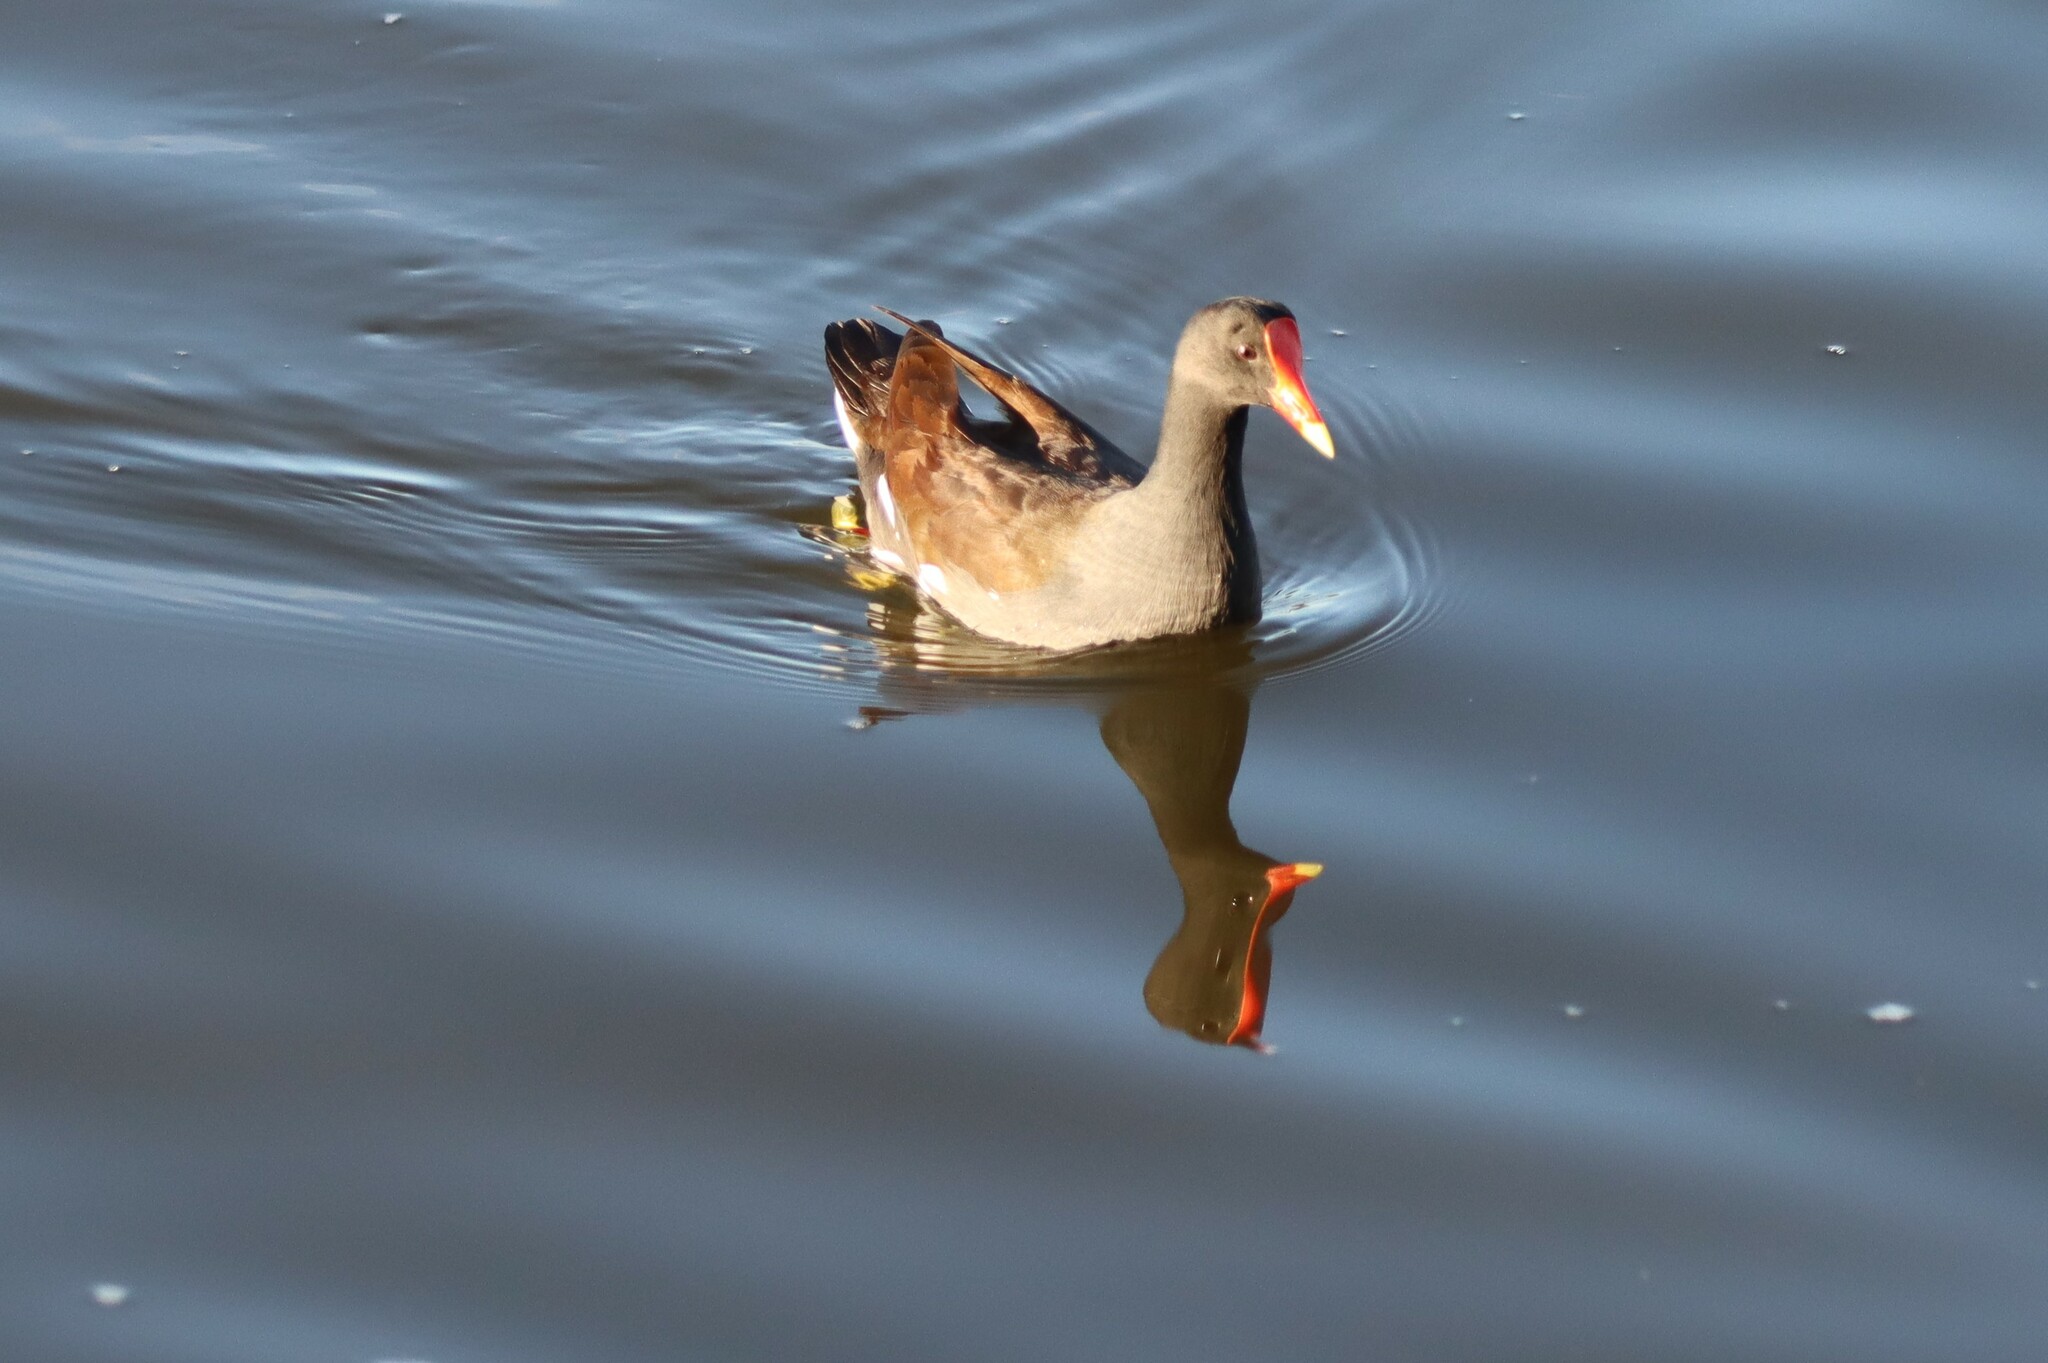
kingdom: Animalia
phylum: Chordata
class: Aves
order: Gruiformes
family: Rallidae
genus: Gallinula
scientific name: Gallinula chloropus
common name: Common moorhen
